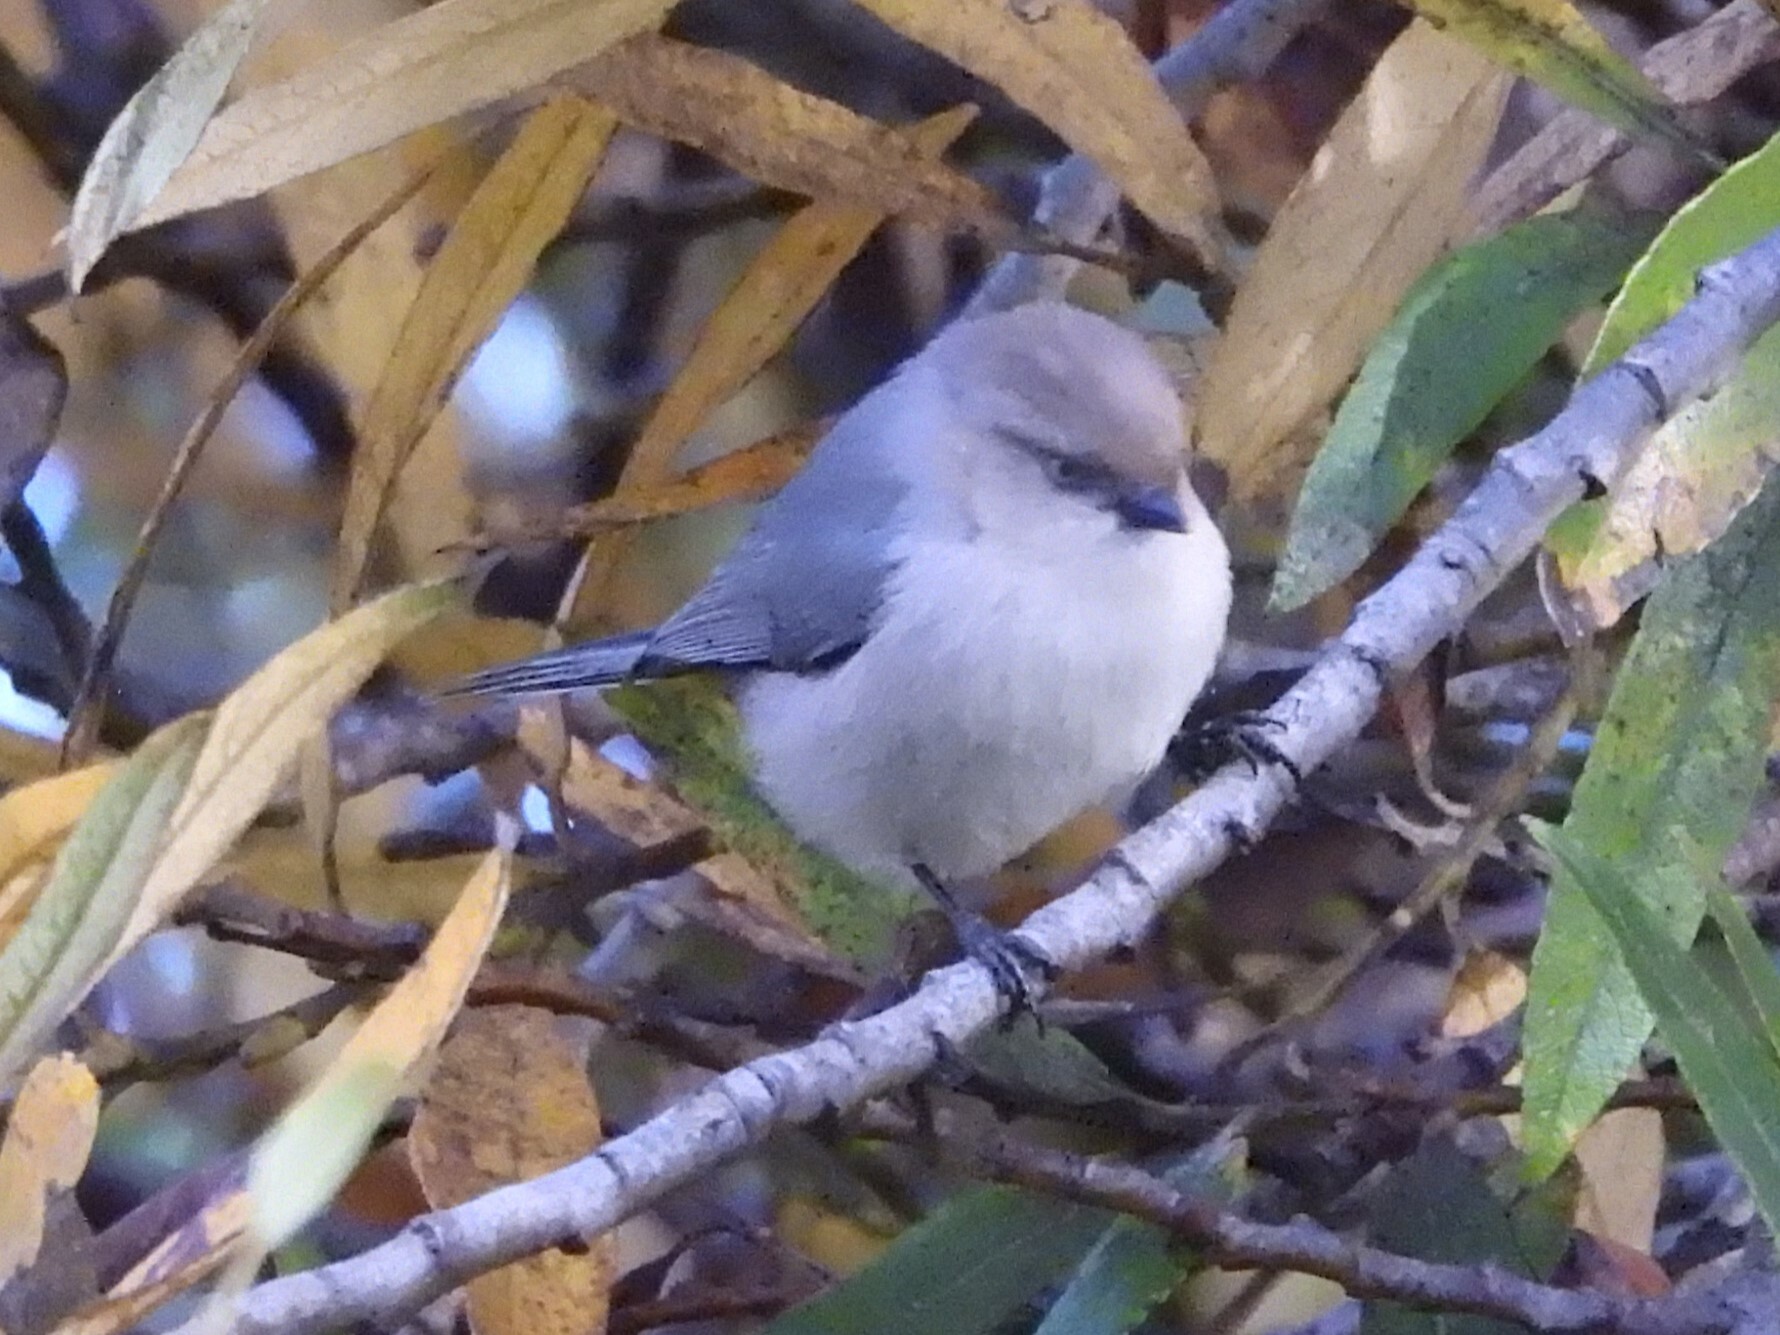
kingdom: Animalia
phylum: Chordata
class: Aves
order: Passeriformes
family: Aegithalidae
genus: Psaltriparus
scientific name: Psaltriparus minimus
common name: American bushtit
